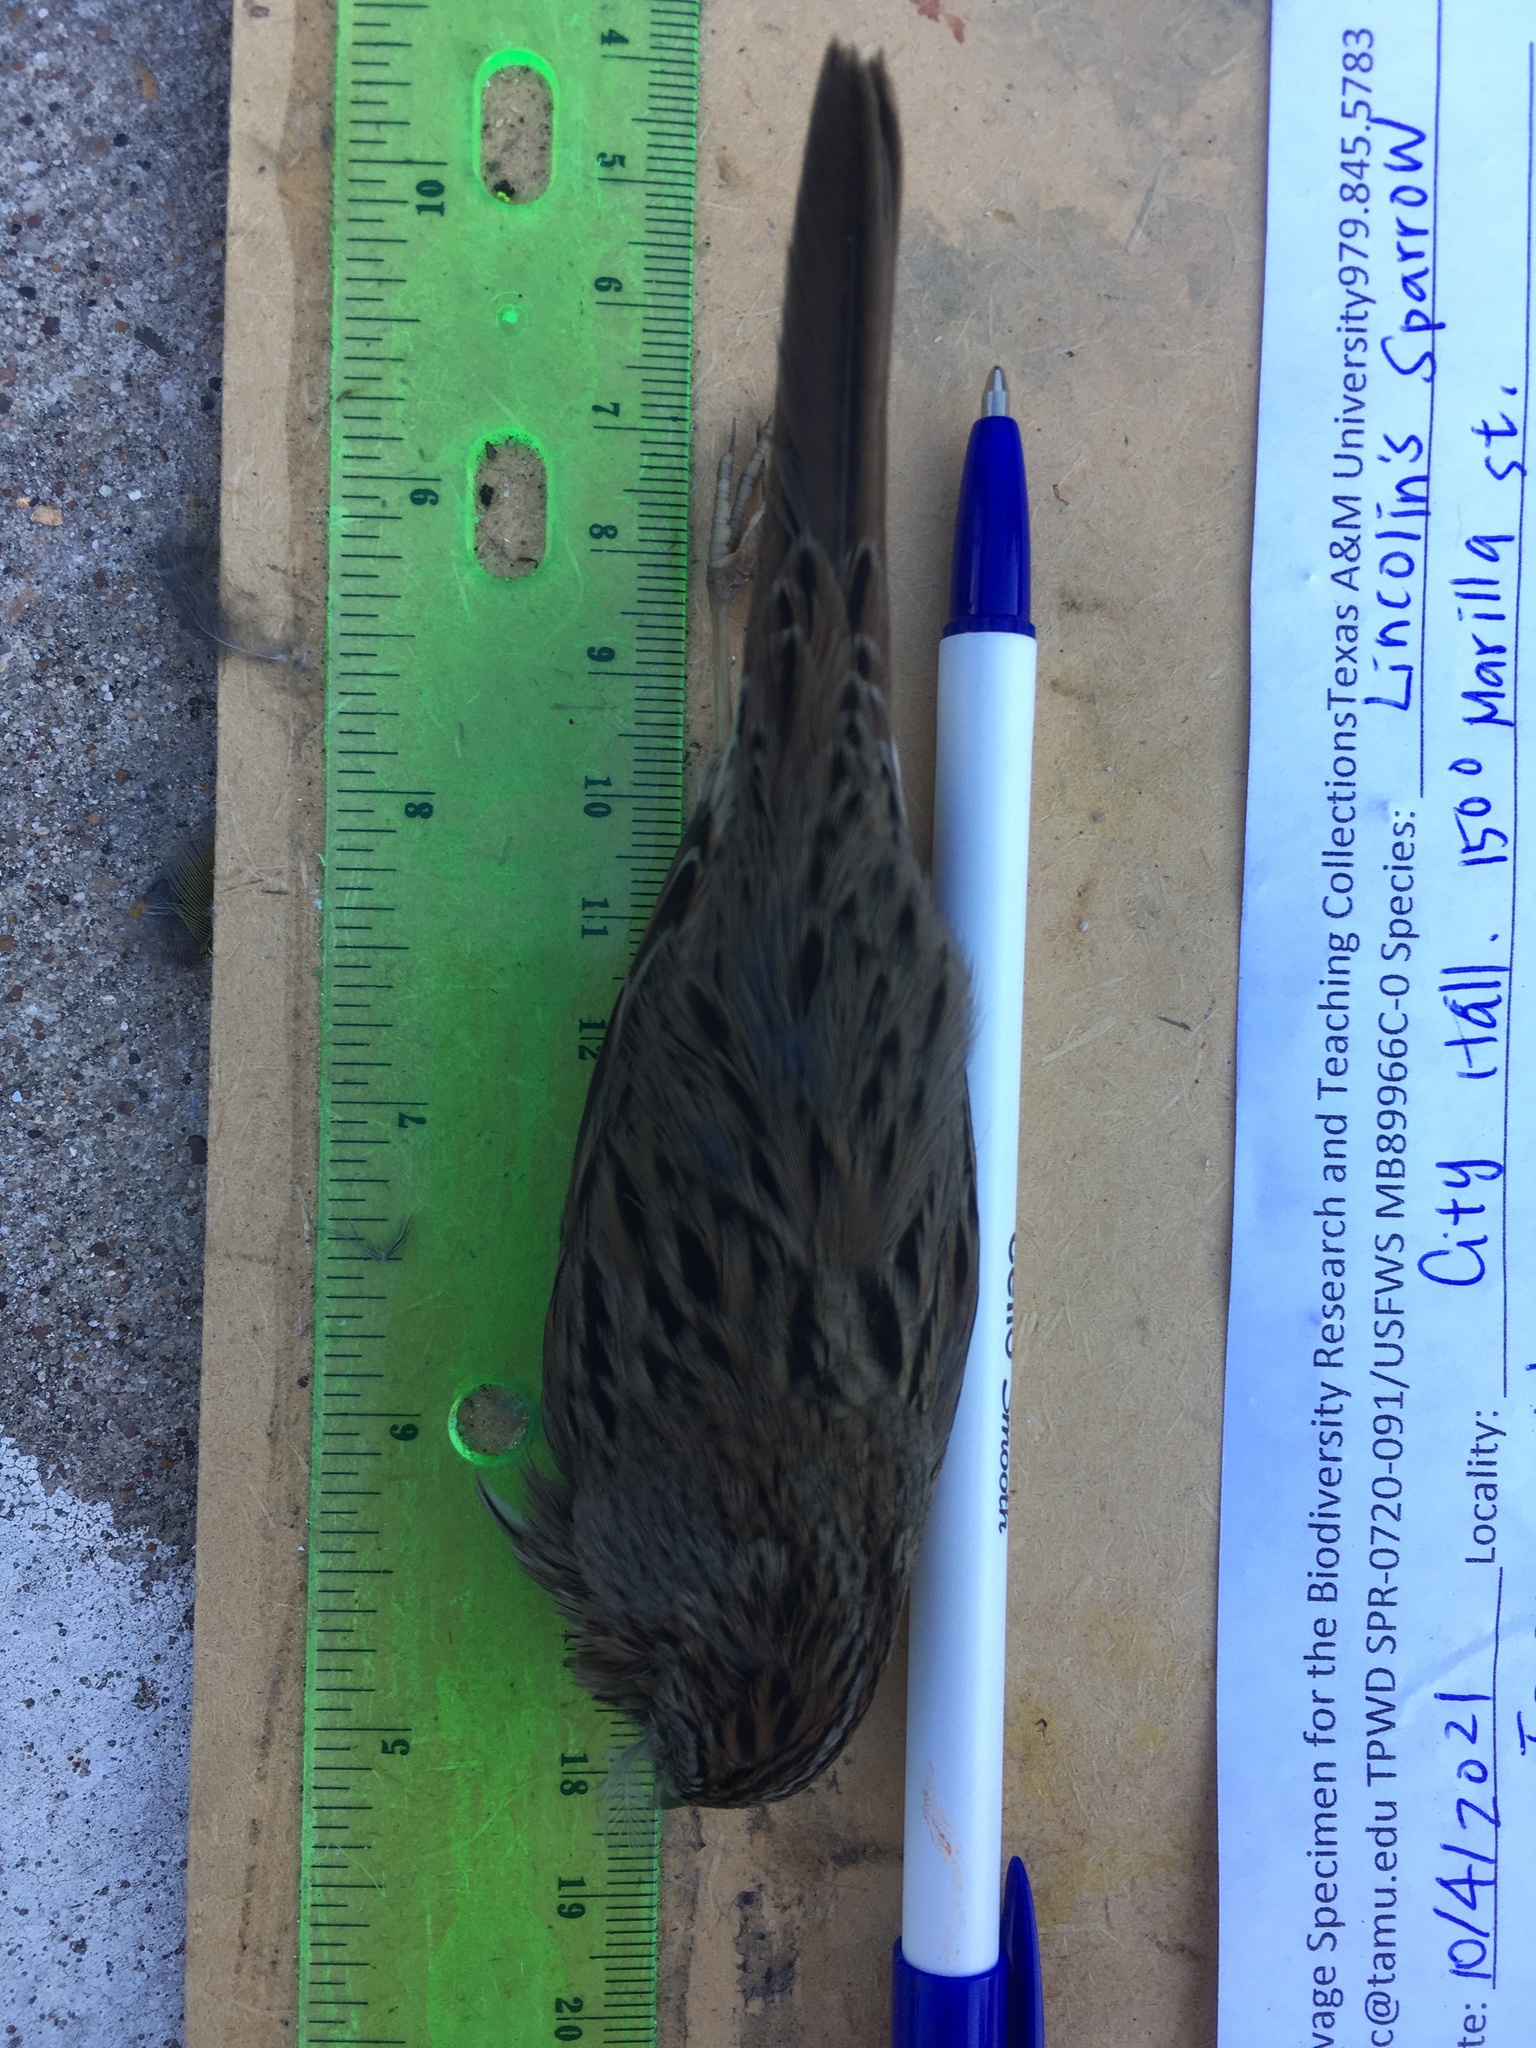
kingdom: Animalia
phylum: Chordata
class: Aves
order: Passeriformes
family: Passerellidae
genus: Melospiza
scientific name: Melospiza lincolnii
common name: Lincoln's sparrow
